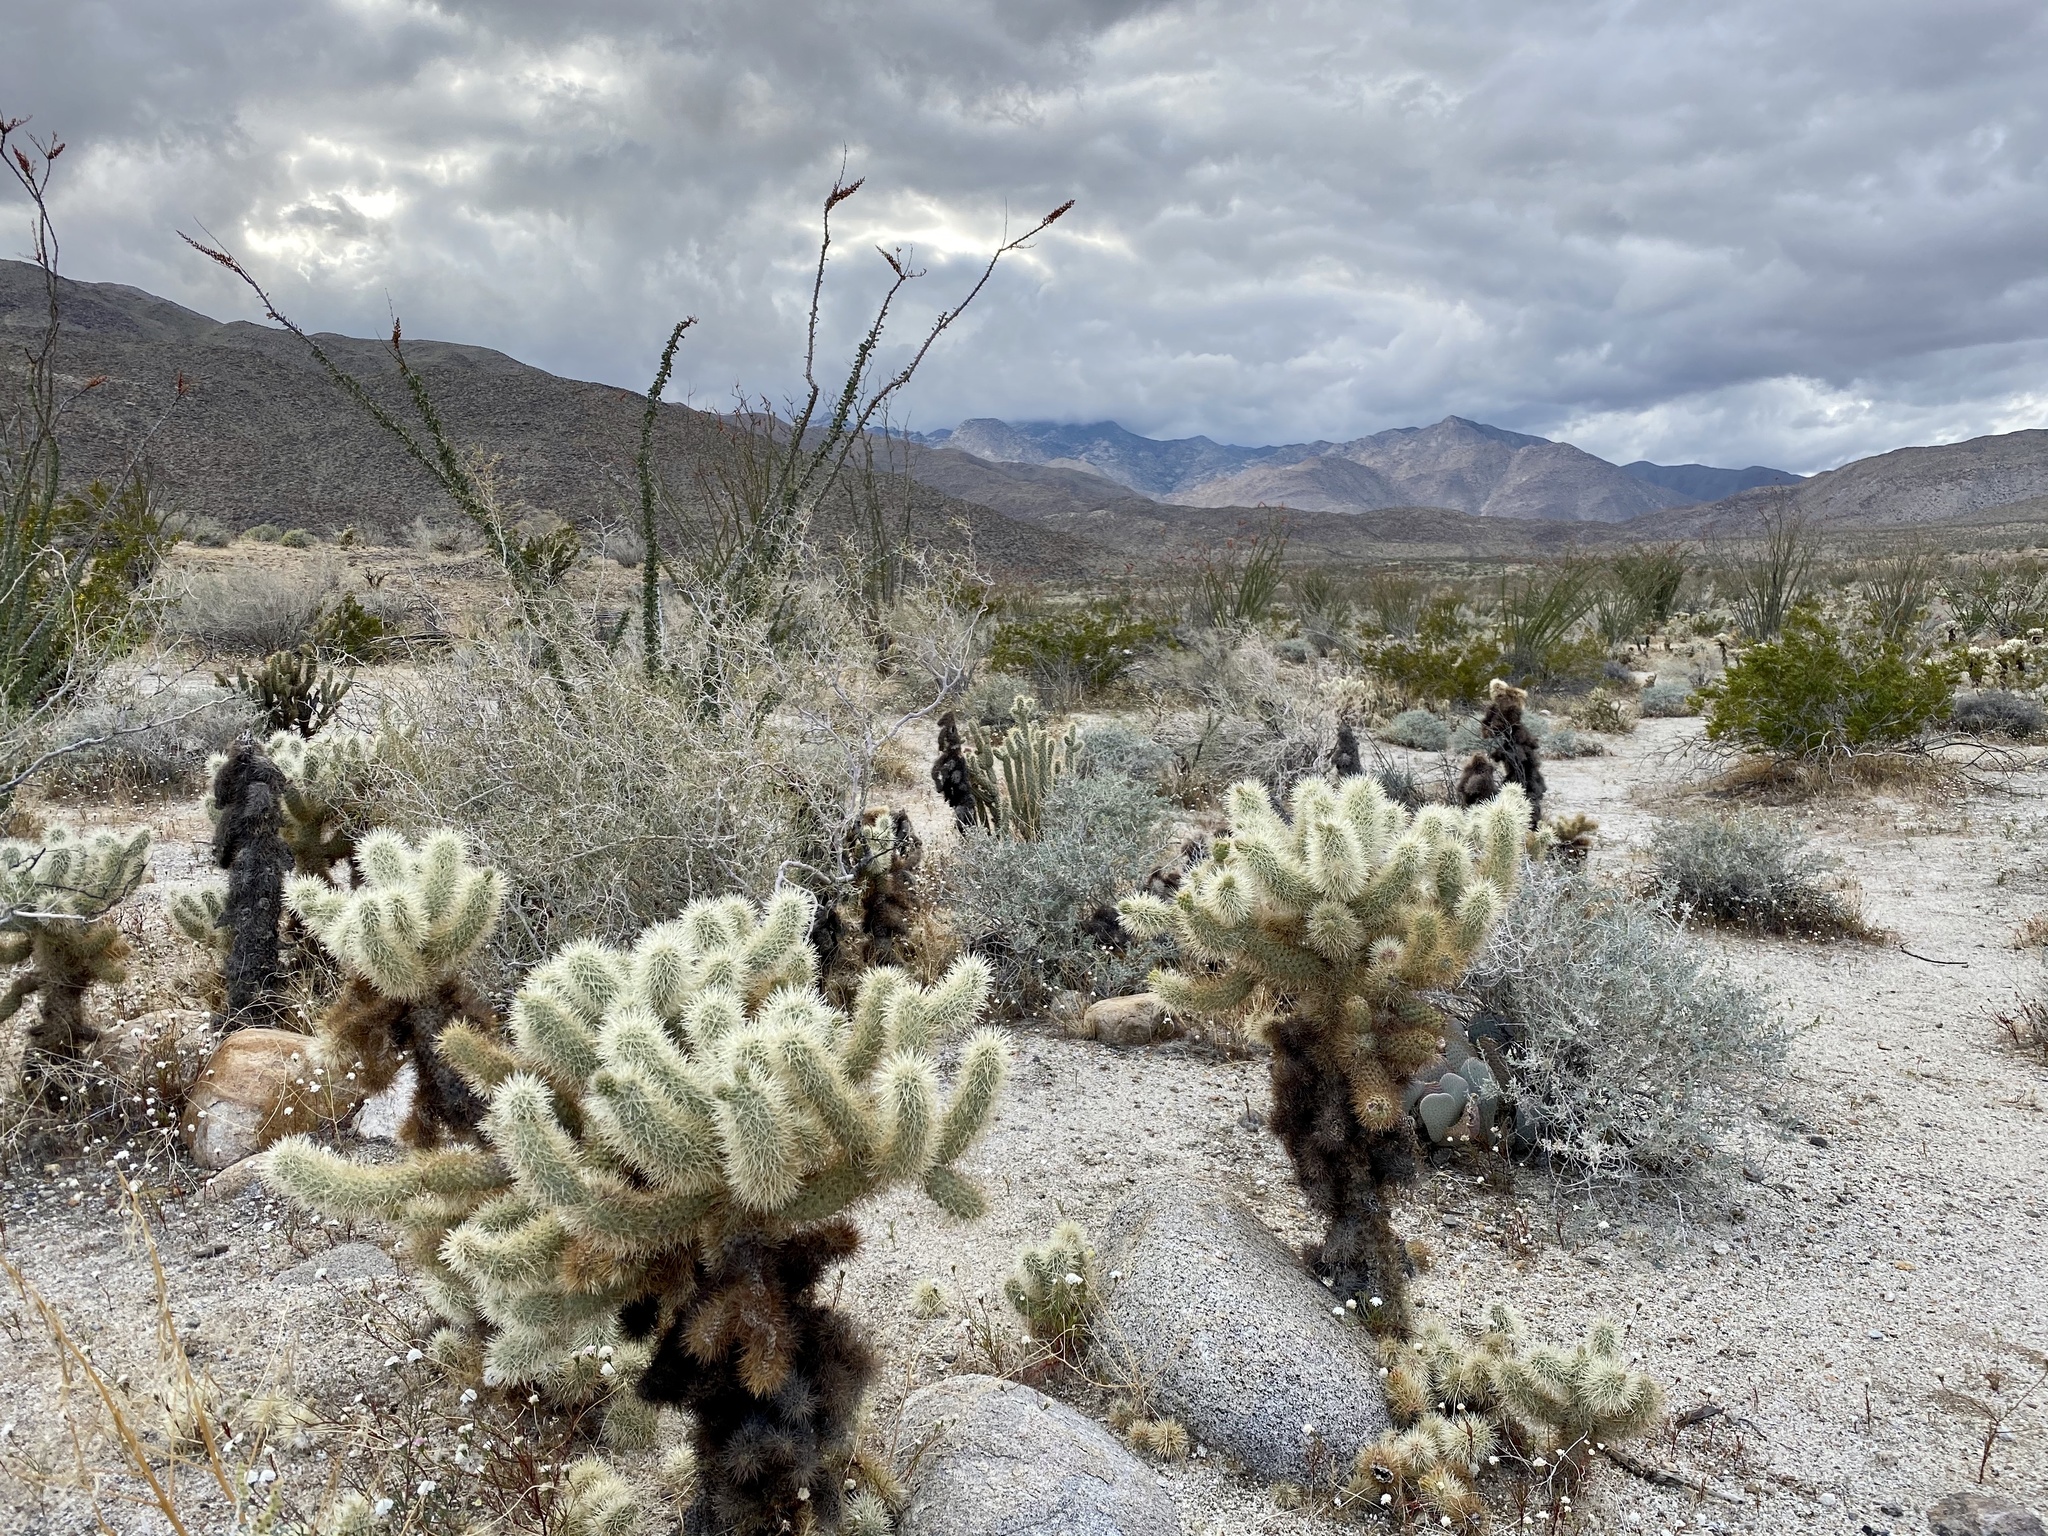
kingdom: Plantae
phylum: Tracheophyta
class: Magnoliopsida
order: Caryophyllales
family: Cactaceae
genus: Cylindropuntia
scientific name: Cylindropuntia fosbergii
